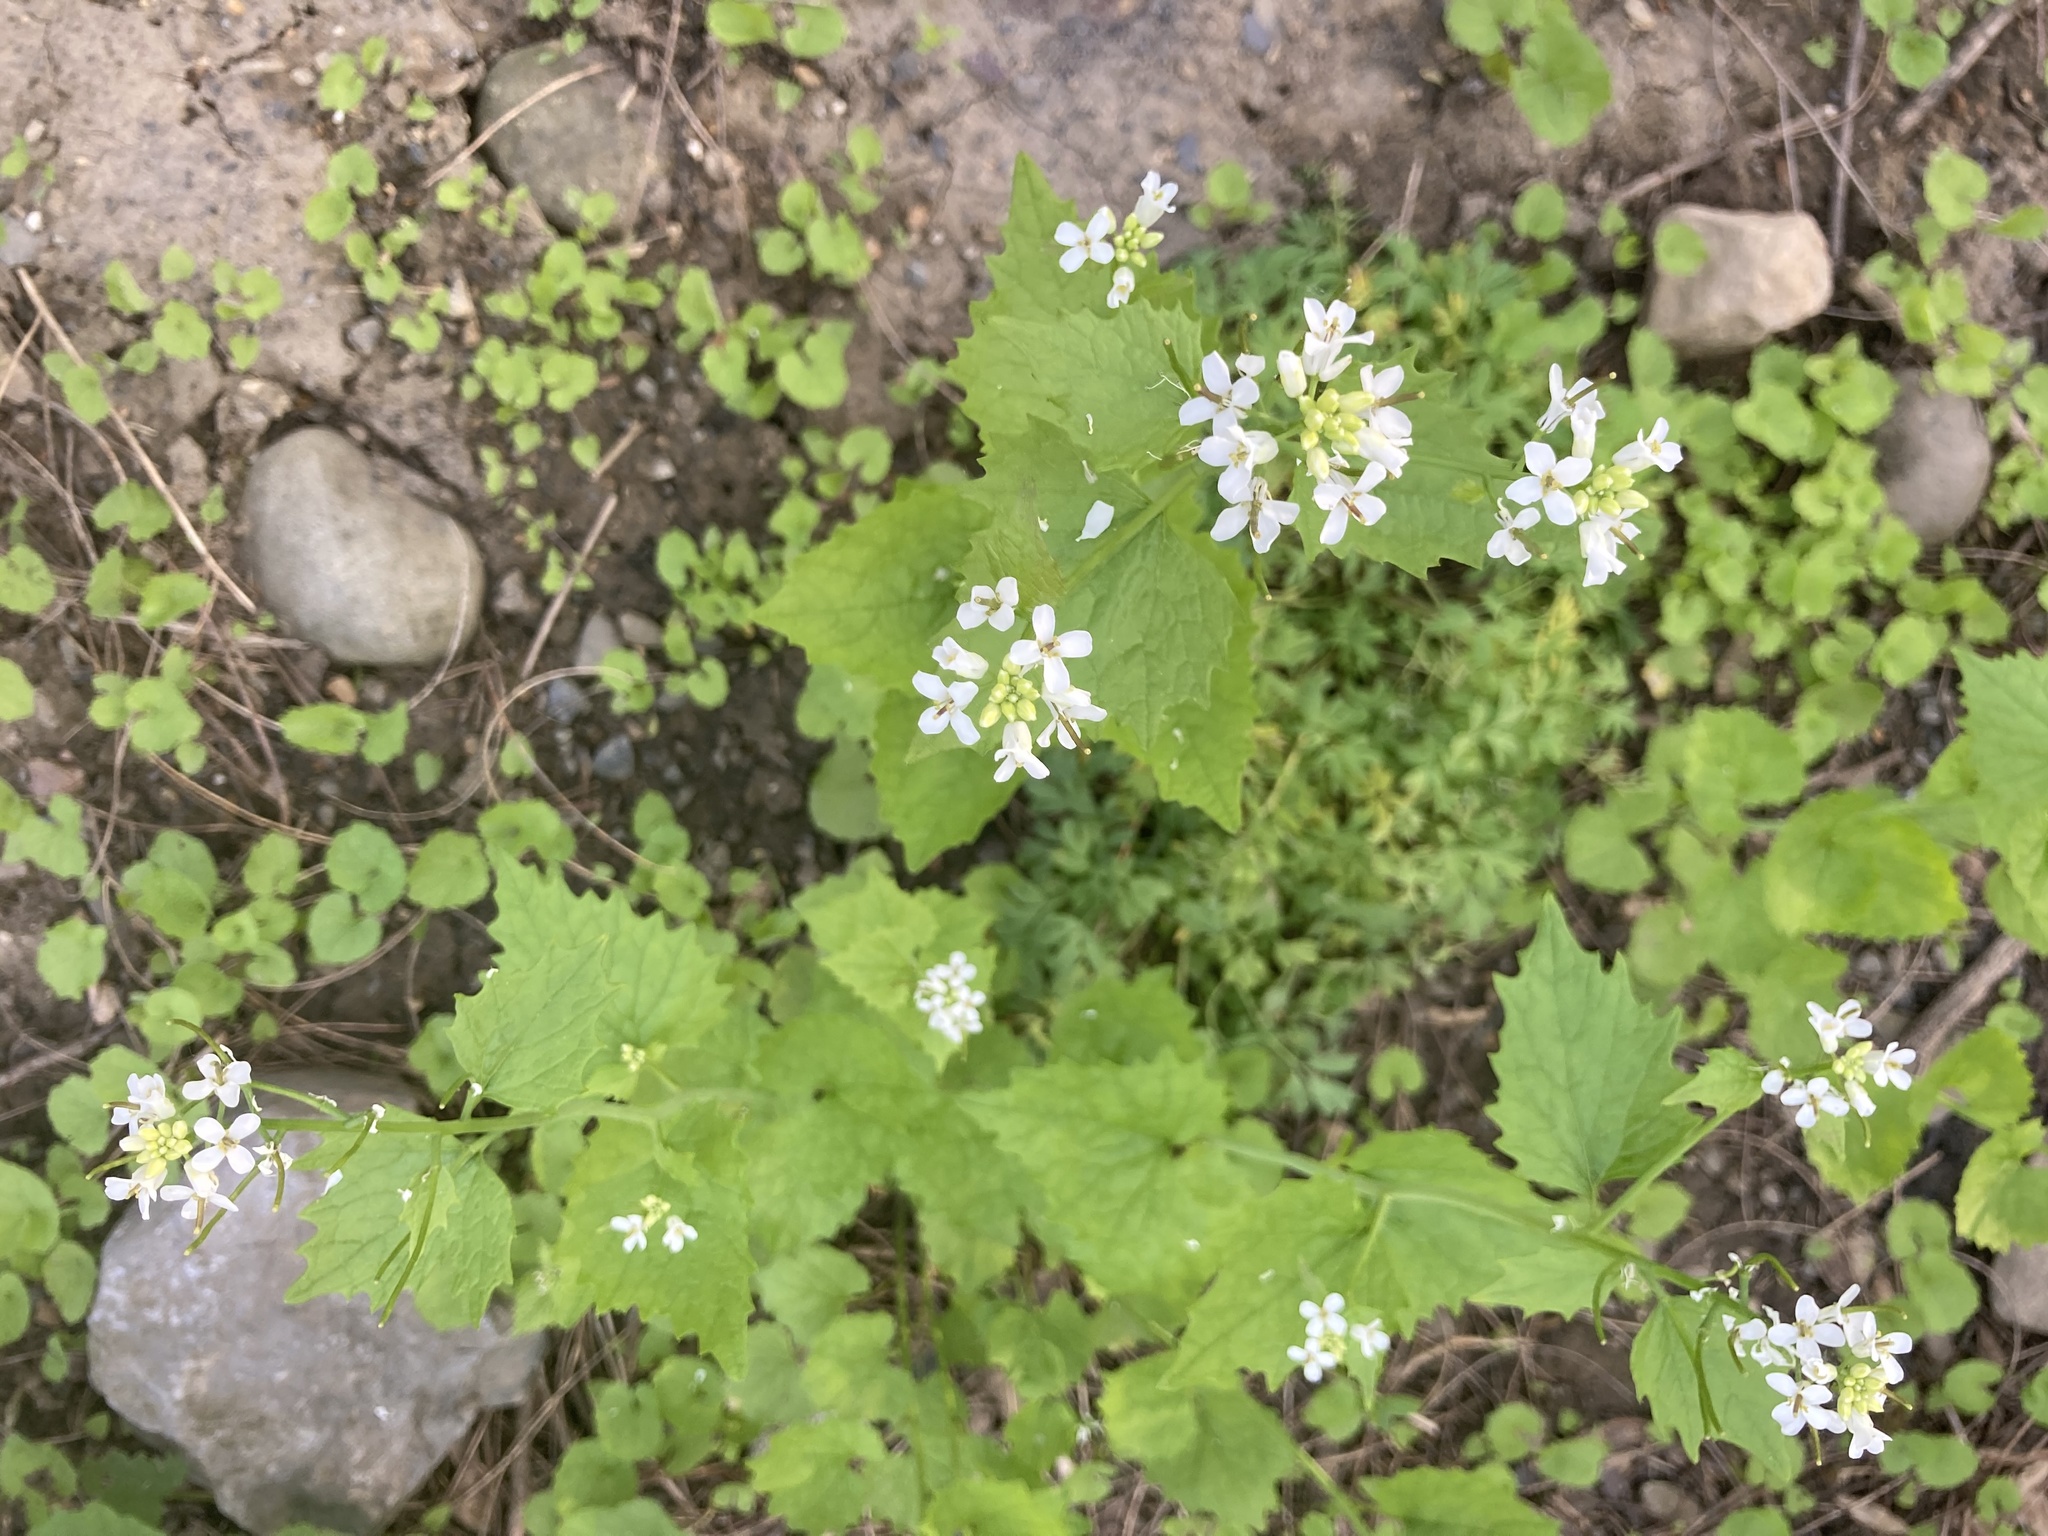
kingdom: Plantae
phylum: Tracheophyta
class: Magnoliopsida
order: Brassicales
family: Brassicaceae
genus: Alliaria
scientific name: Alliaria petiolata
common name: Garlic mustard
